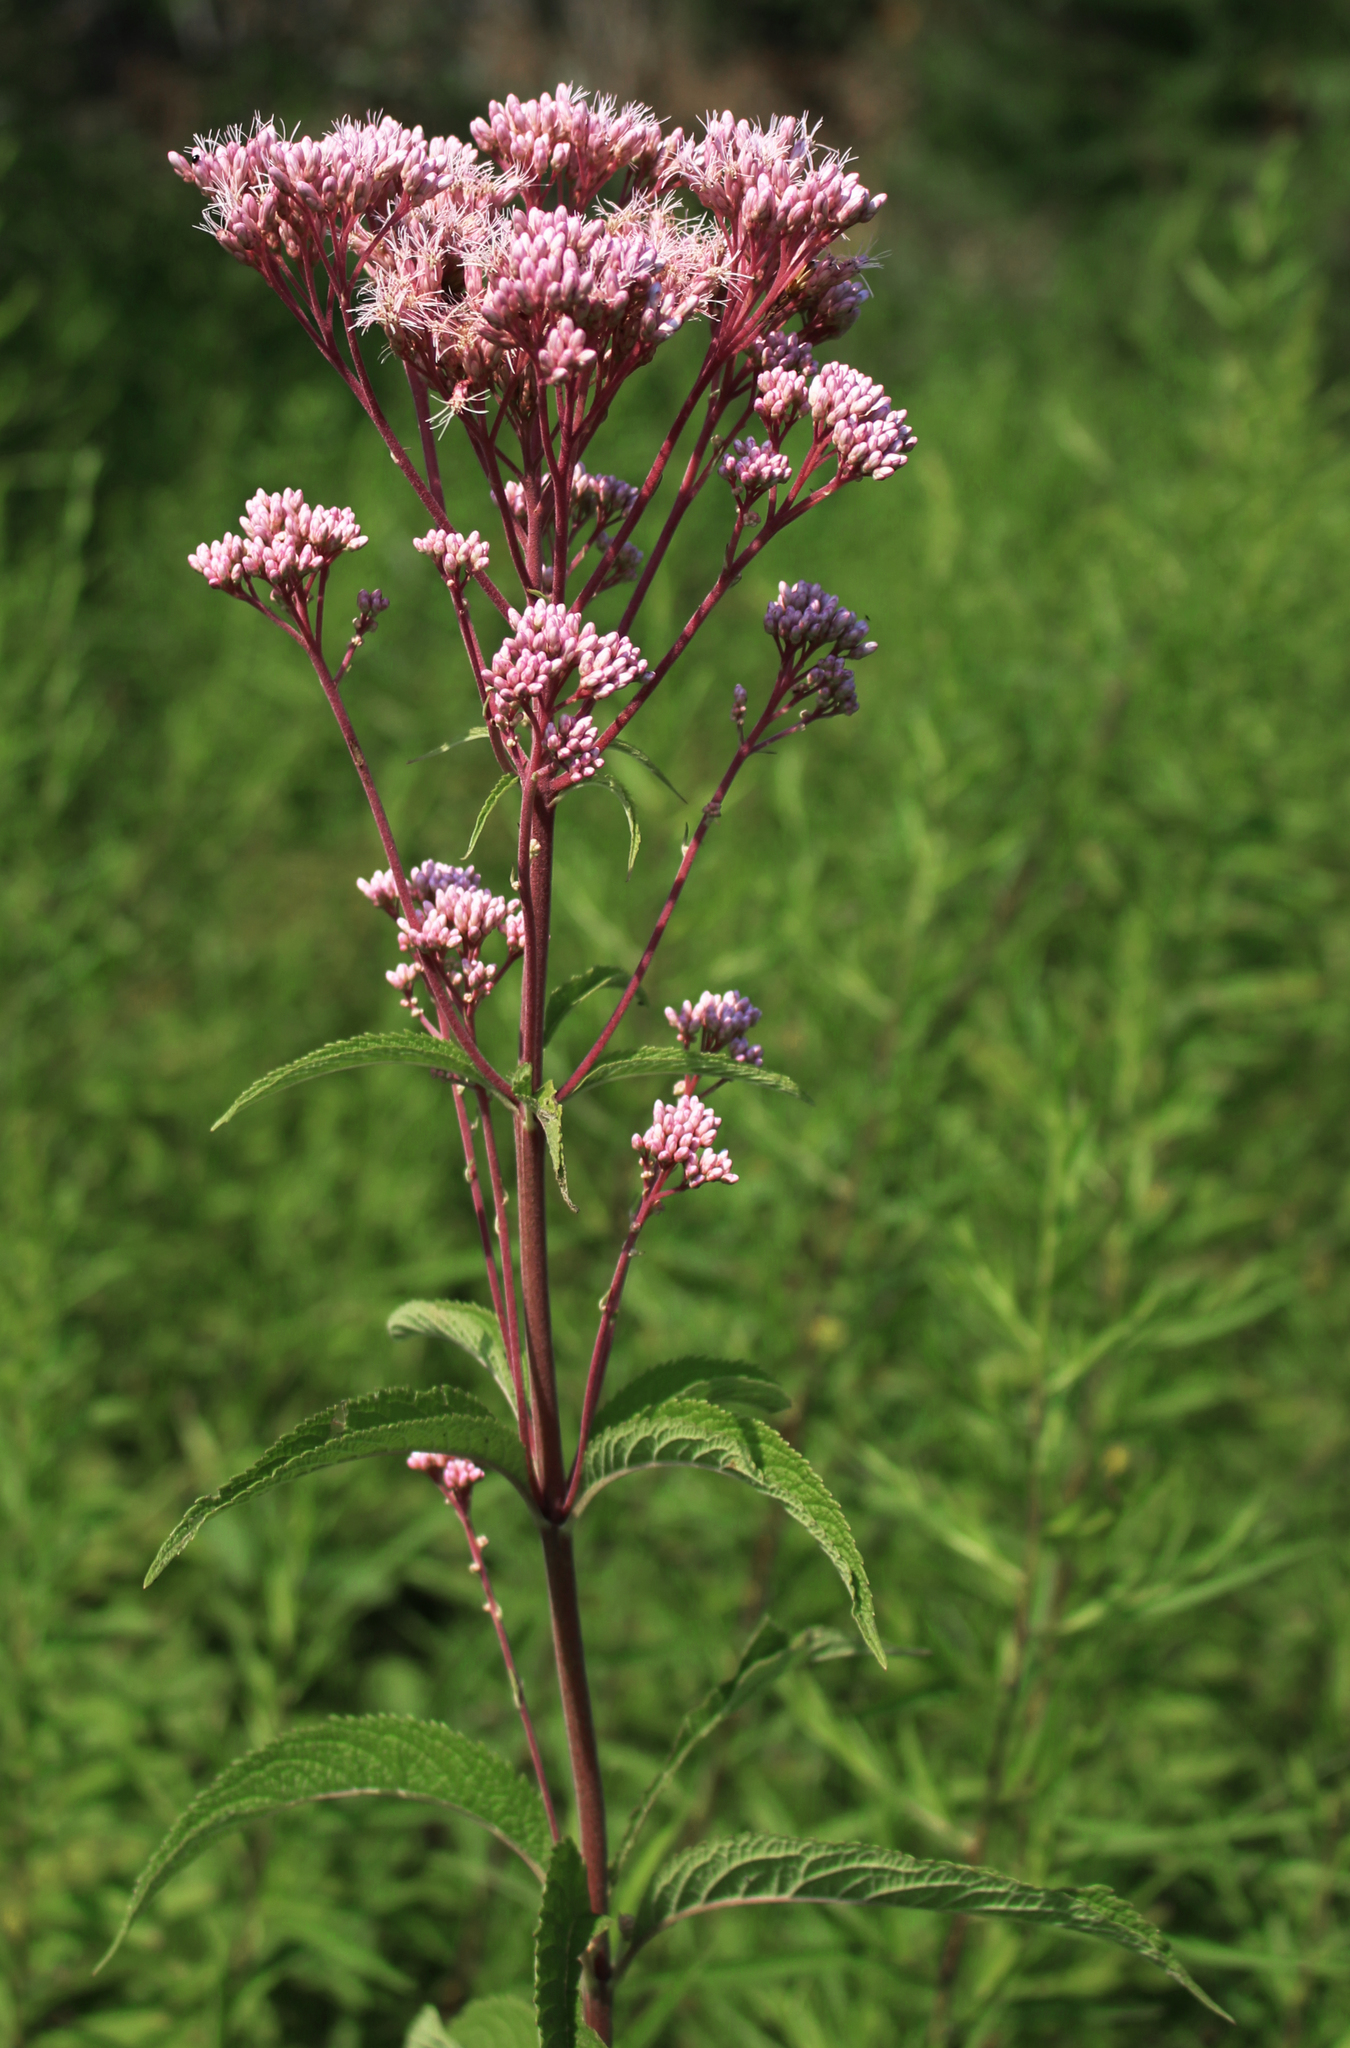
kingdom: Plantae
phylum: Tracheophyta
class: Magnoliopsida
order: Asterales
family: Asteraceae
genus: Eutrochium
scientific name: Eutrochium maculatum
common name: Spotted joe pye weed
